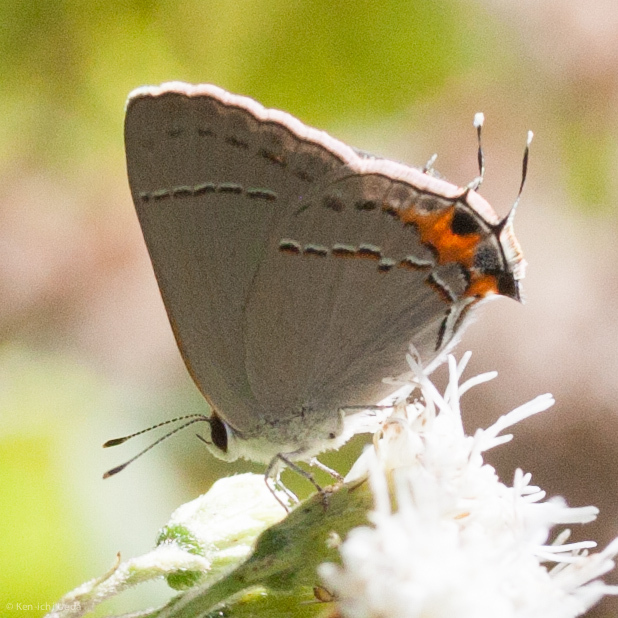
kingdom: Animalia
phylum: Arthropoda
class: Insecta
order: Lepidoptera
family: Lycaenidae
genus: Strymon
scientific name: Strymon melinus
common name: Gray hairstreak
